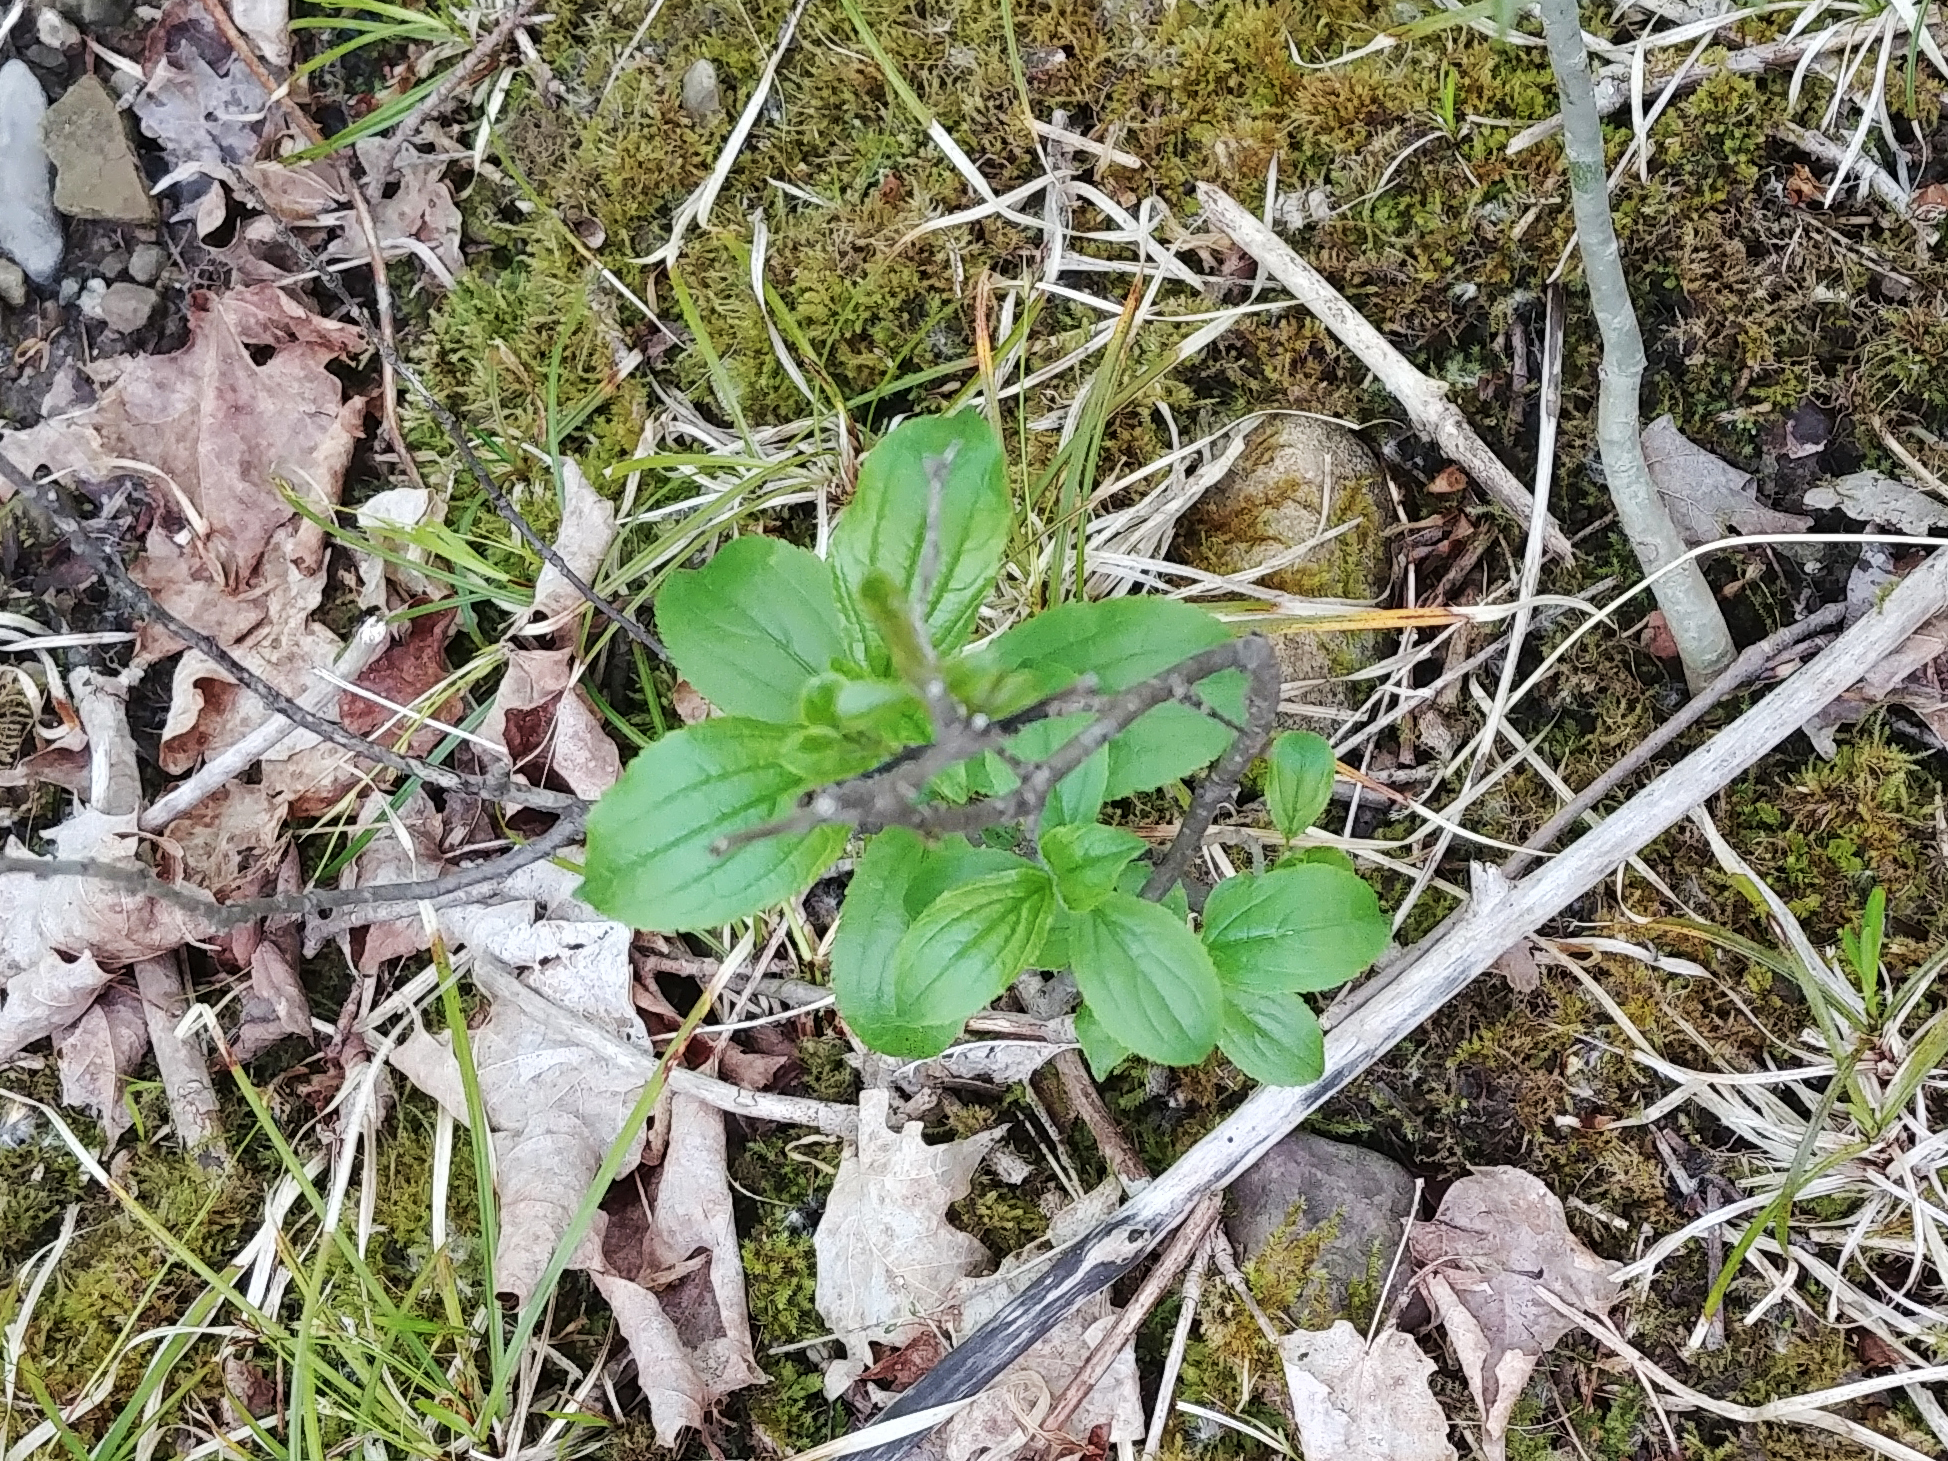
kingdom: Plantae
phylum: Tracheophyta
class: Magnoliopsida
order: Rosales
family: Rhamnaceae
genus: Rhamnus
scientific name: Rhamnus cathartica
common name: Common buckthorn
